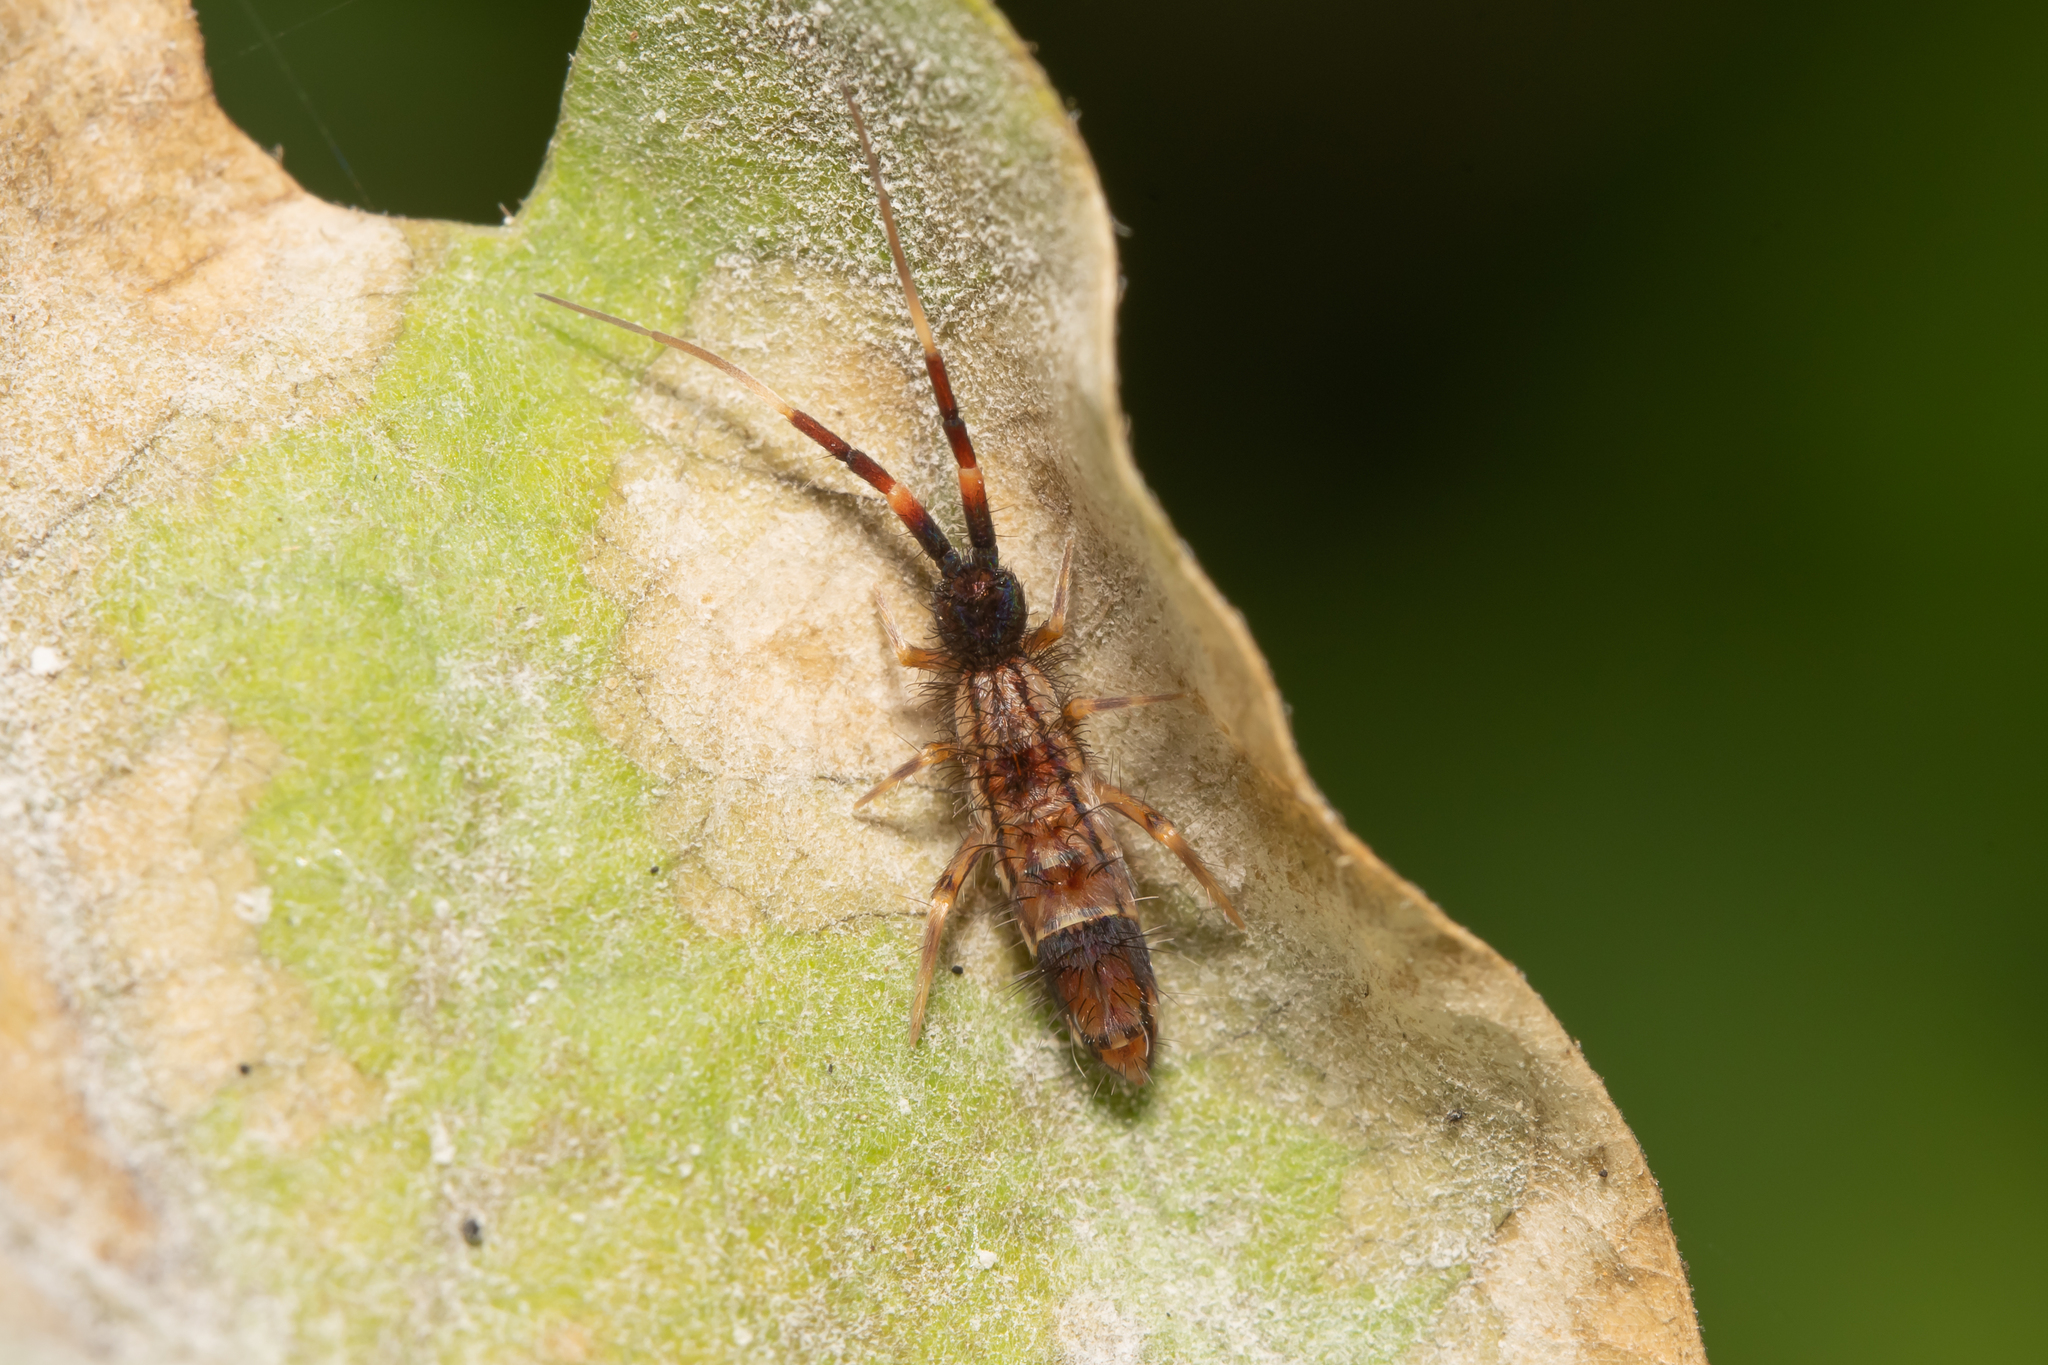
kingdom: Animalia
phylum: Arthropoda
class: Collembola
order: Entomobryomorpha
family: Entomobryidae
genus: Entomobrya
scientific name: Entomobrya nivalis
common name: Cosmopolitan springtail
